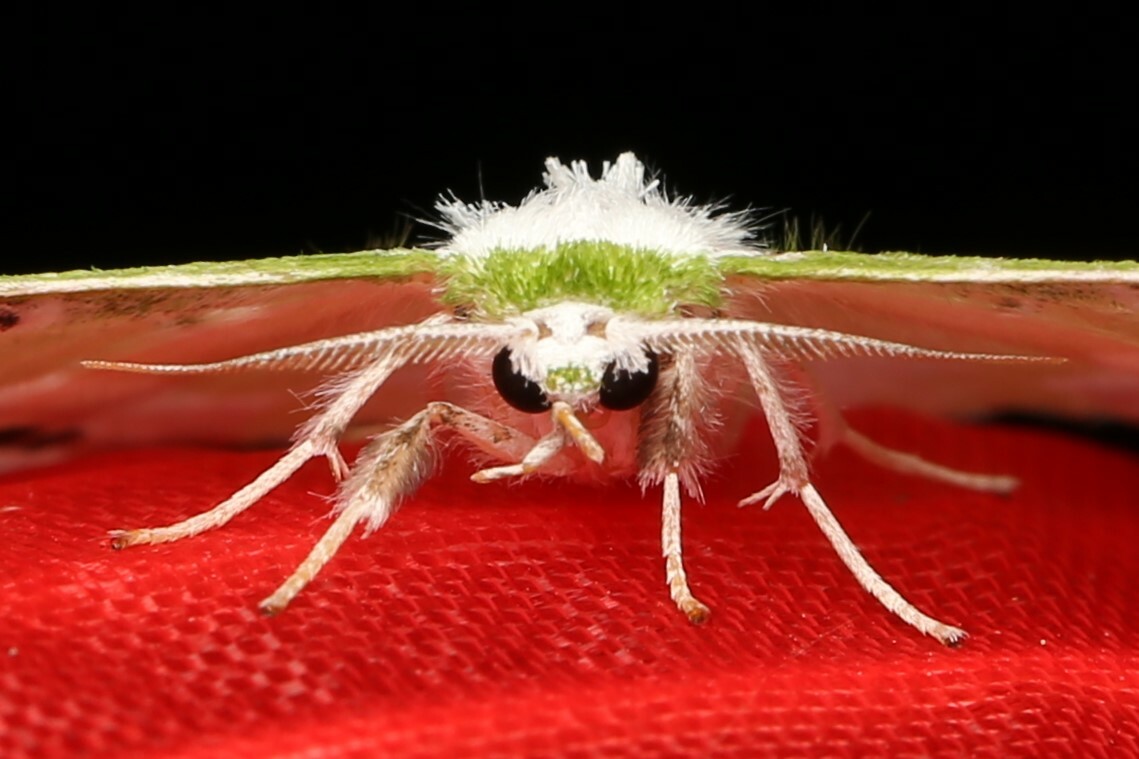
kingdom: Animalia
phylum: Arthropoda
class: Insecta
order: Lepidoptera
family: Geometridae
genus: Protuliocnemis
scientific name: Protuliocnemis partita
